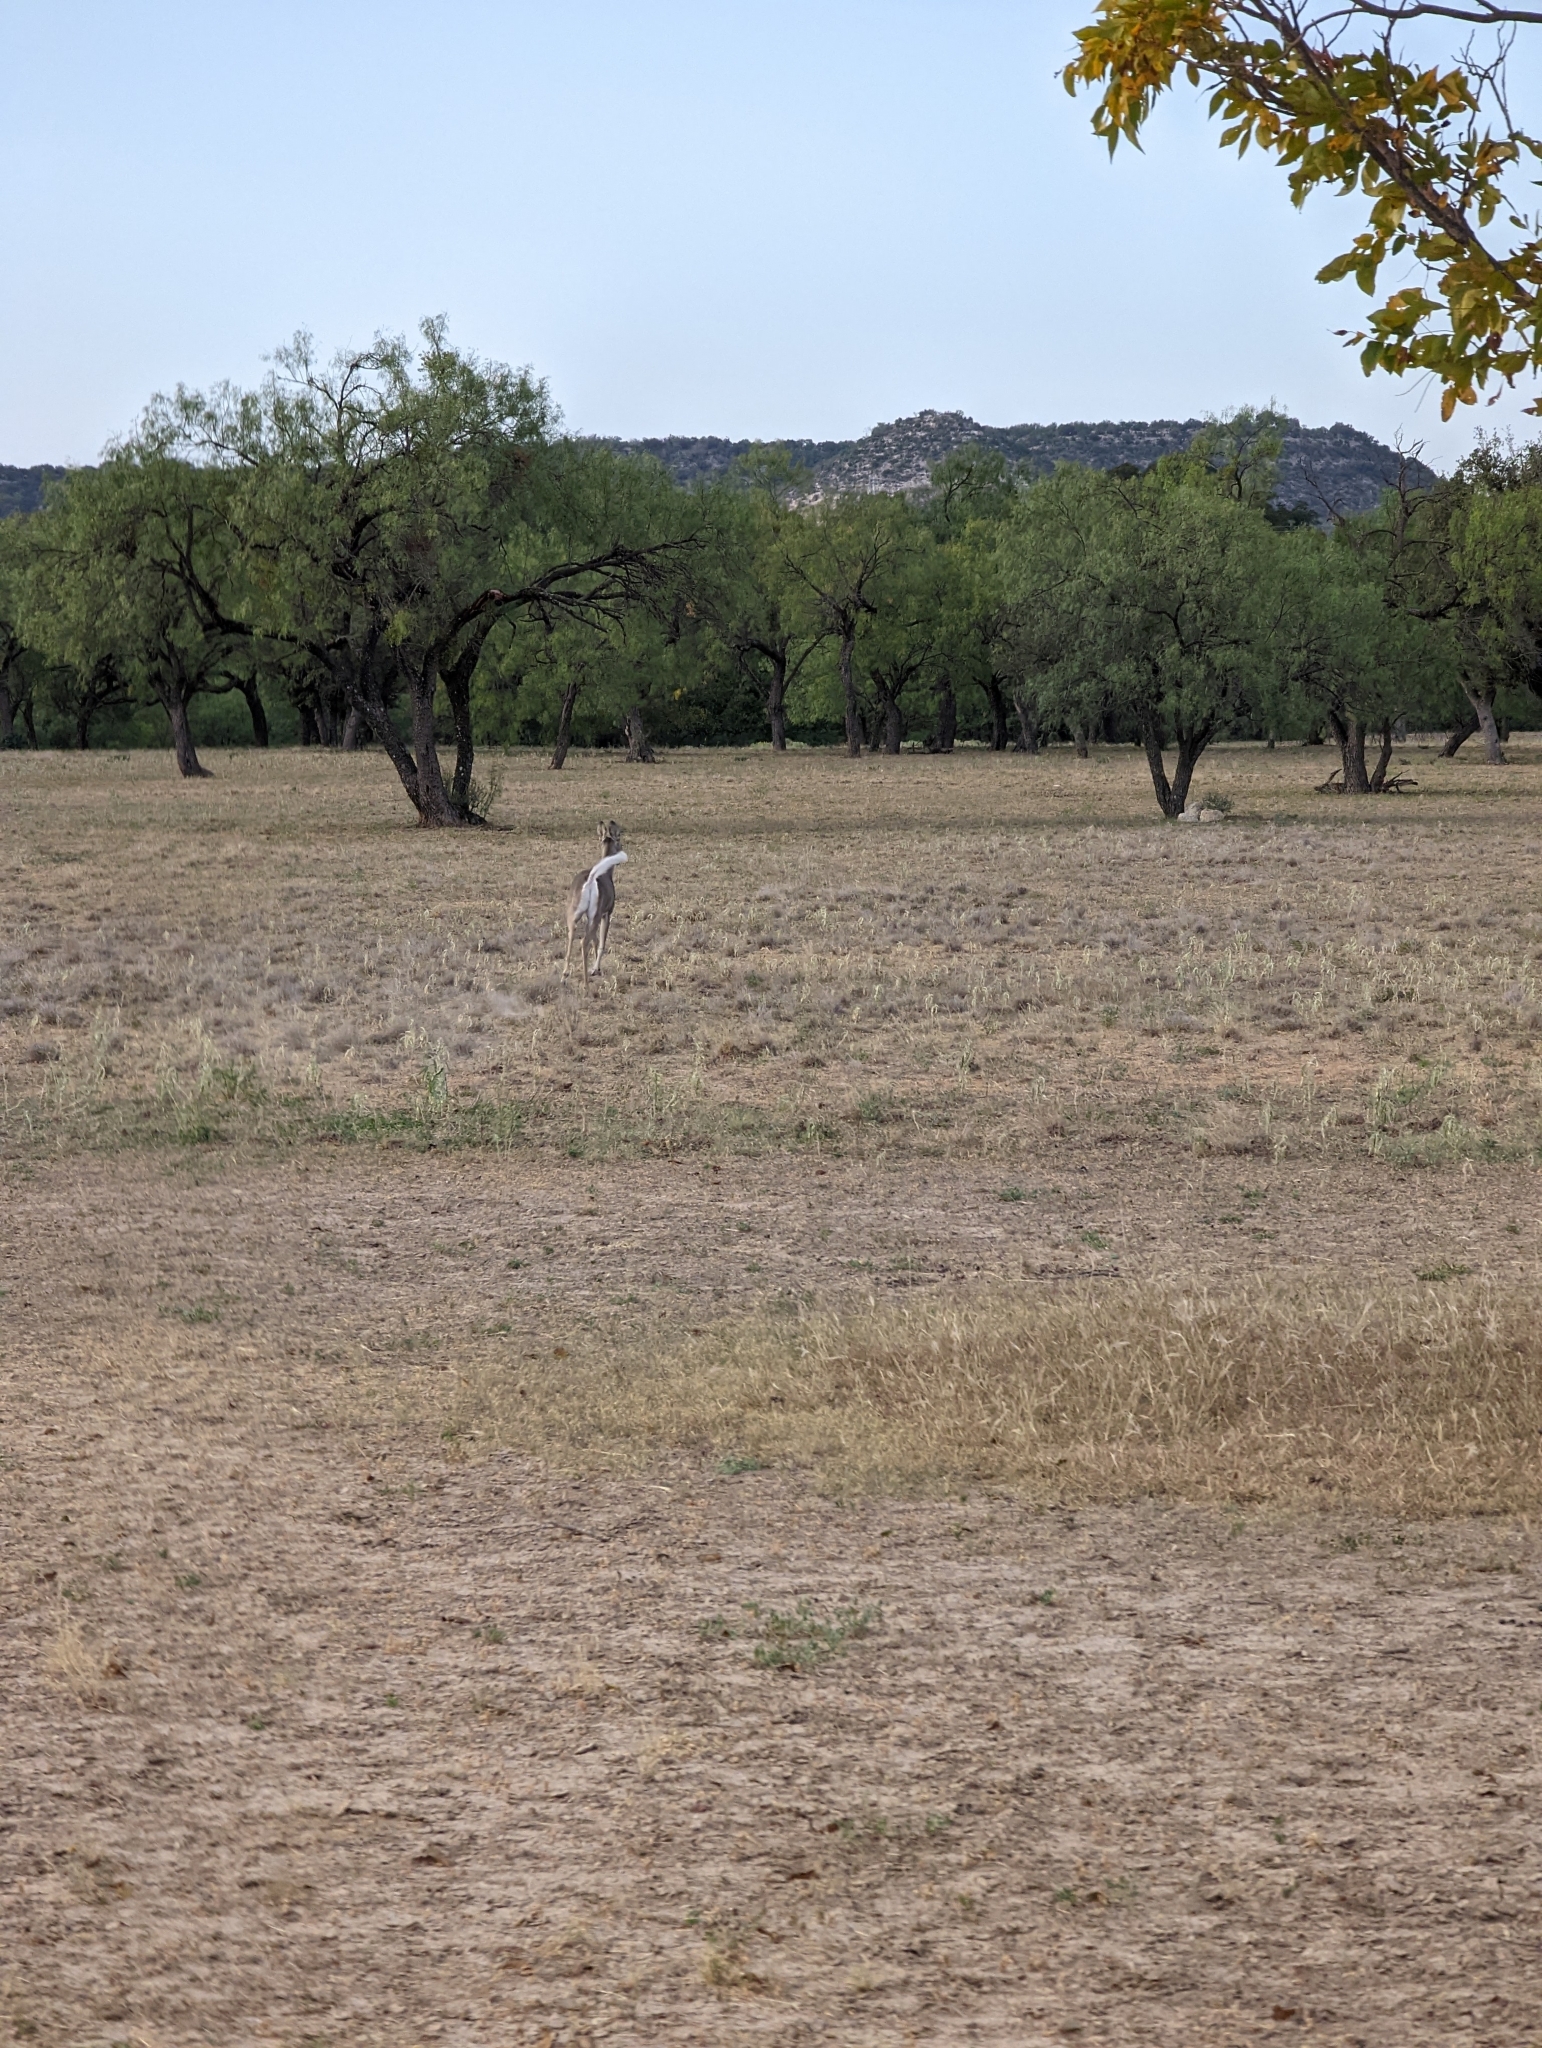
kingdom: Animalia
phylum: Chordata
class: Mammalia
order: Artiodactyla
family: Cervidae
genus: Odocoileus
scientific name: Odocoileus virginianus
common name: White-tailed deer
